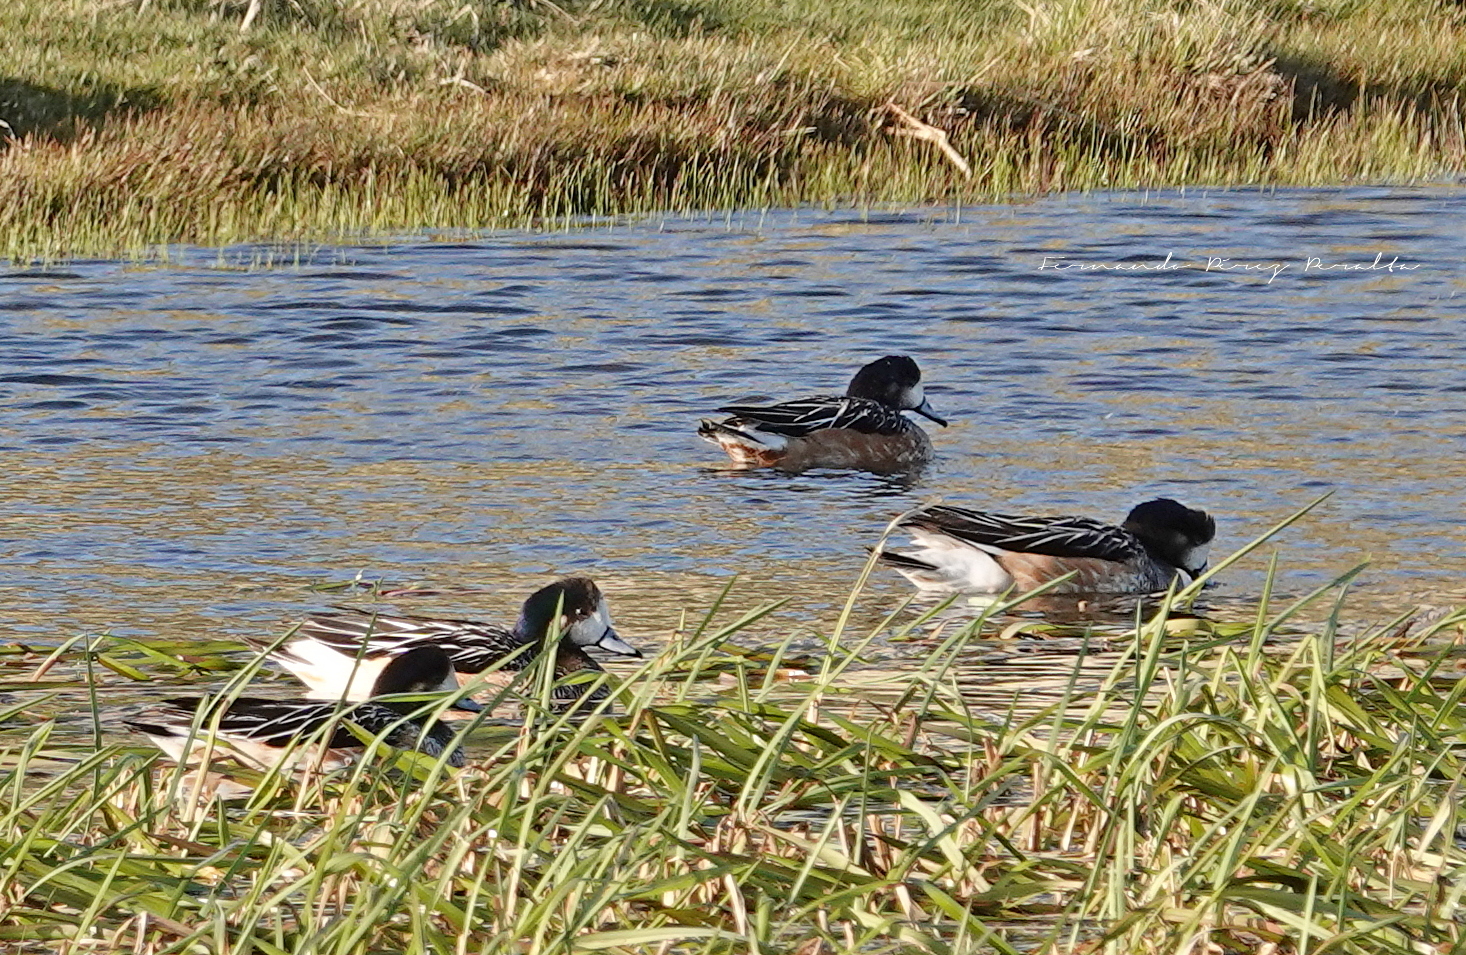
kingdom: Animalia
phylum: Chordata
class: Aves
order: Anseriformes
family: Anatidae
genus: Mareca
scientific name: Mareca sibilatrix
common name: Chiloe wigeon
